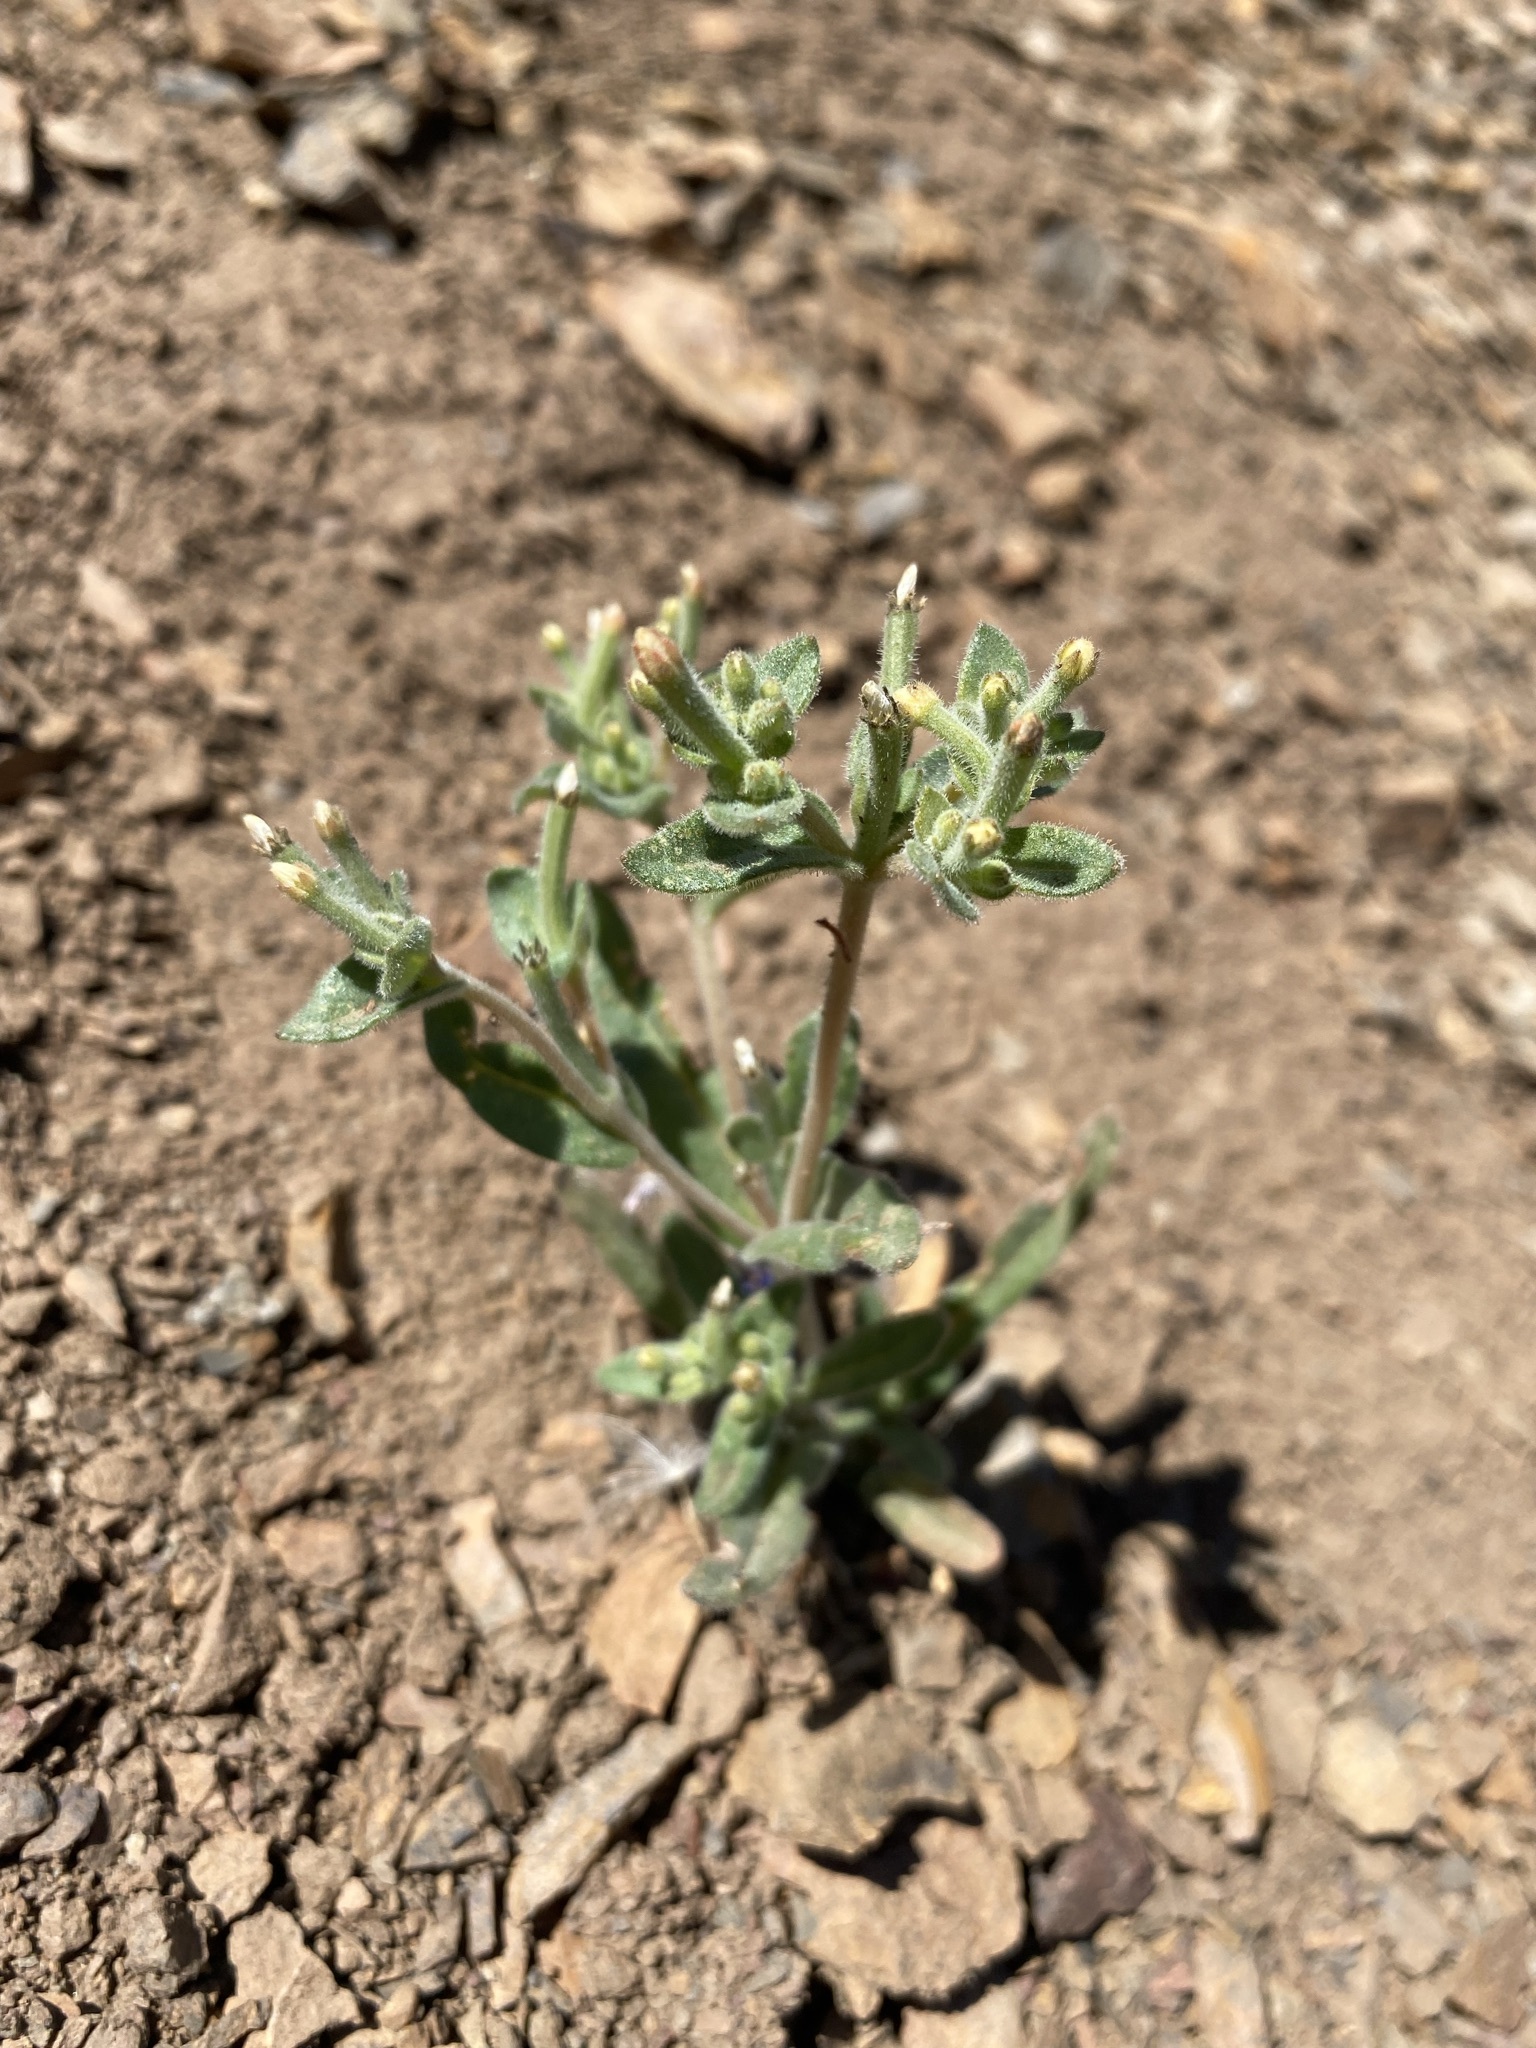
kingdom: Plantae
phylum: Tracheophyta
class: Magnoliopsida
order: Cornales
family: Loasaceae
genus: Mentzelia
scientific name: Mentzelia dispersa
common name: Nada stickleaf
